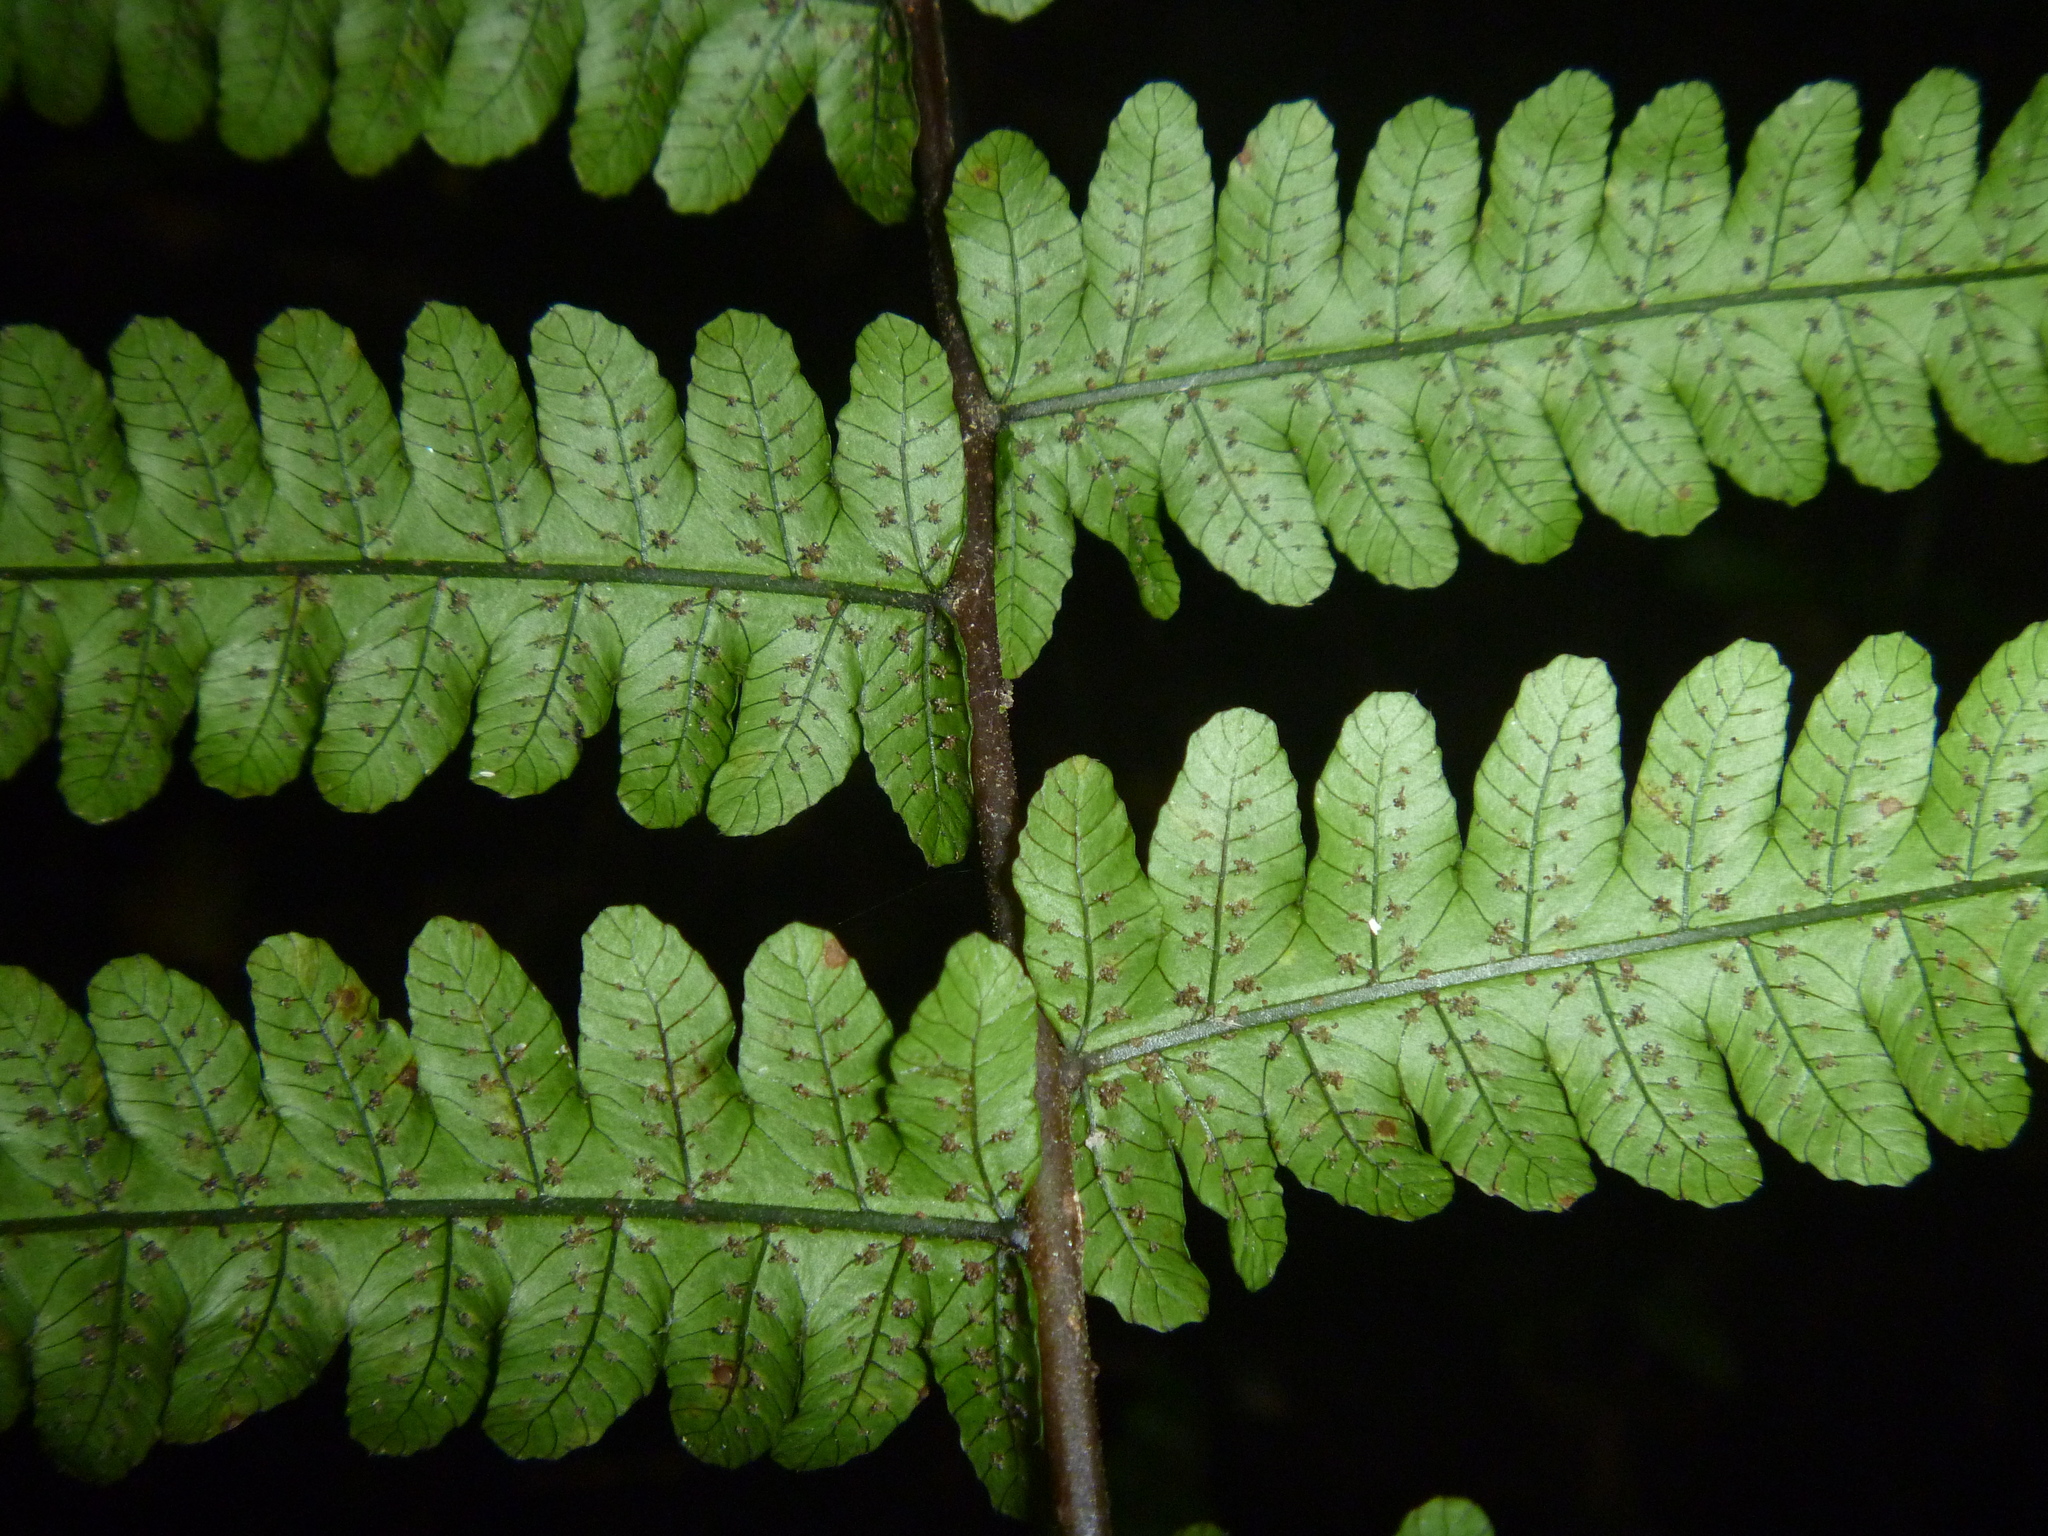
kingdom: Plantae
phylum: Tracheophyta
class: Polypodiopsida
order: Polypodiales
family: Thelypteridaceae
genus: Pakau
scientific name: Pakau pennigera
